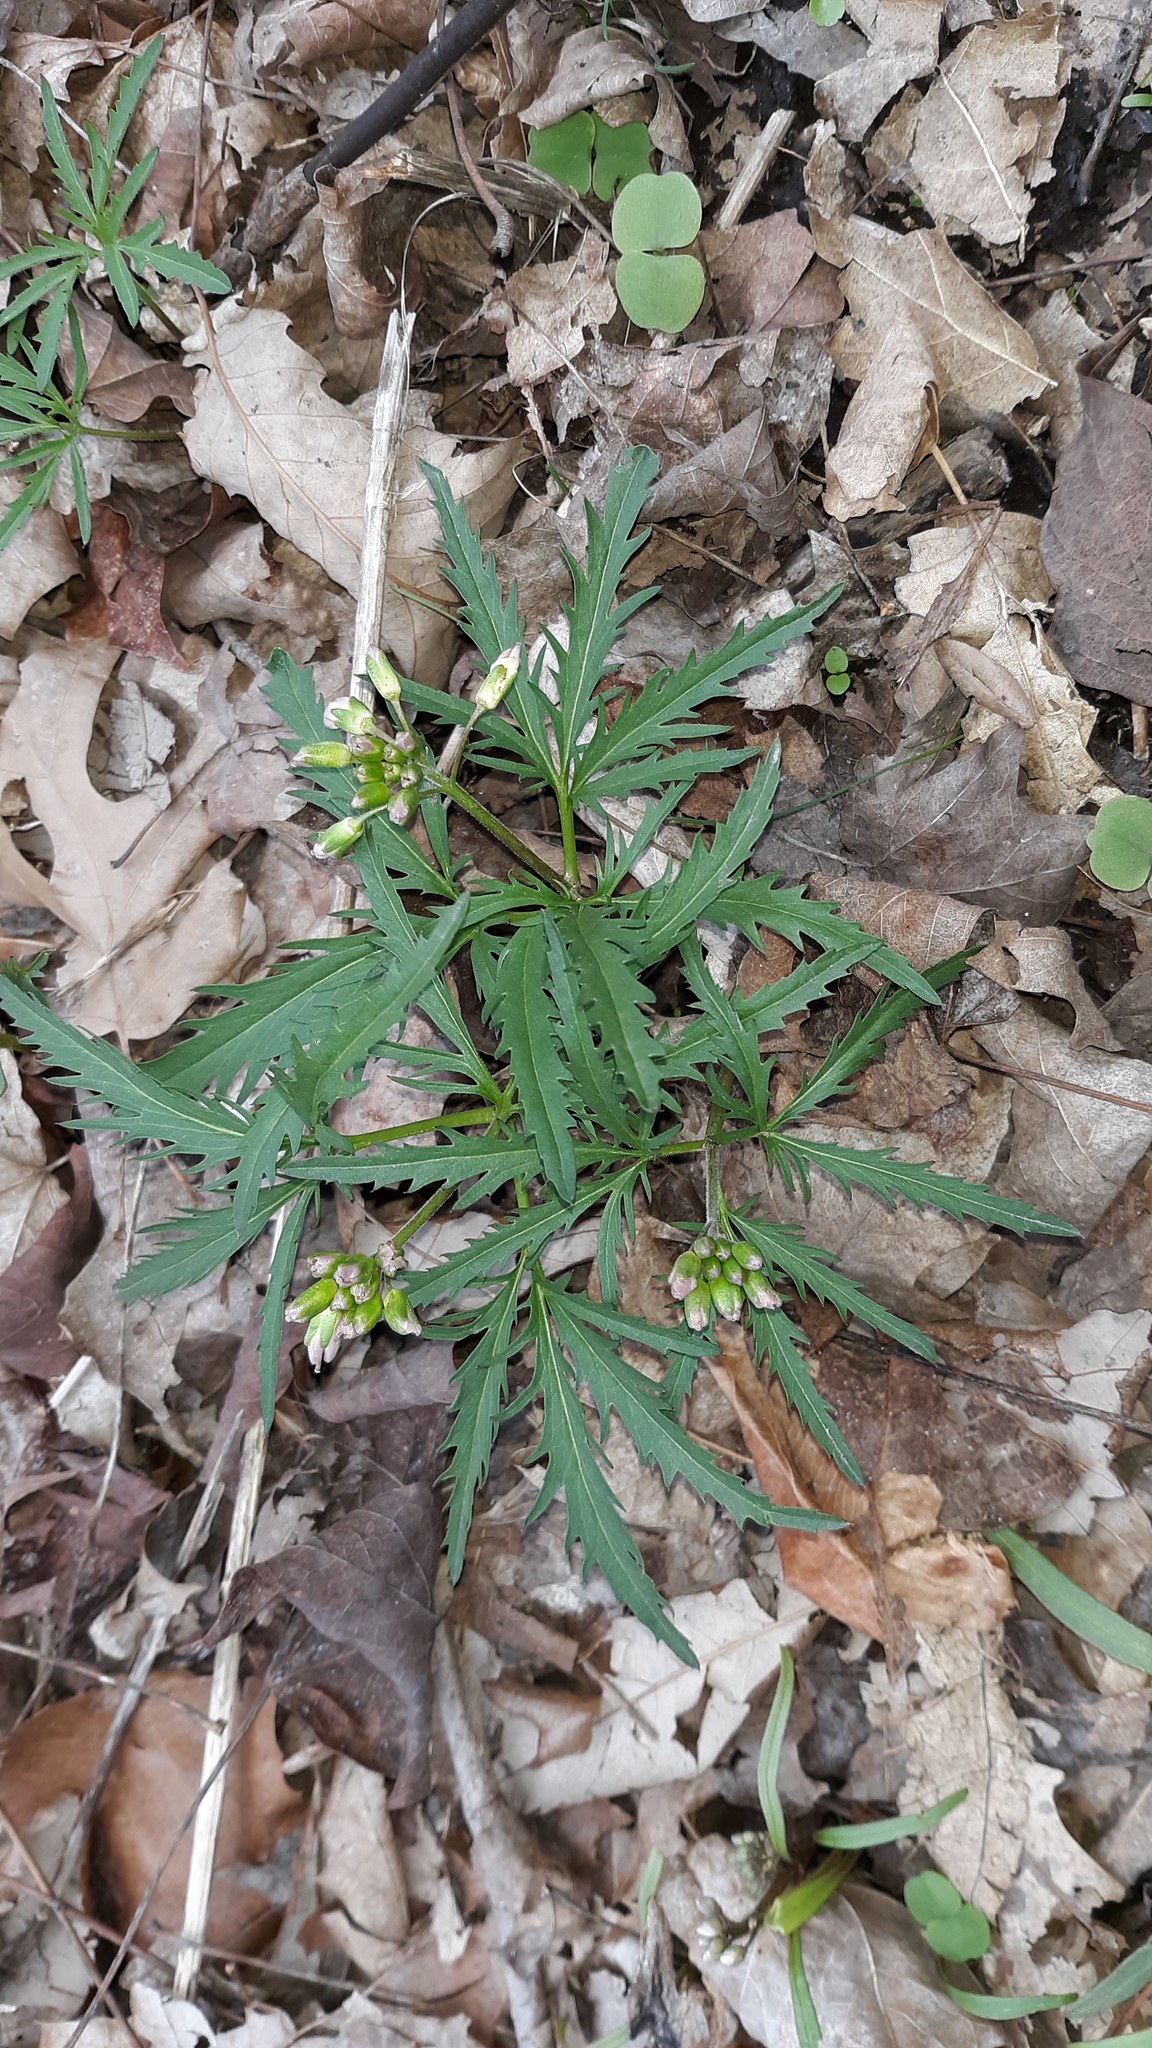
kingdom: Plantae
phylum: Tracheophyta
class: Magnoliopsida
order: Brassicales
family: Brassicaceae
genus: Cardamine
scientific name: Cardamine concatenata
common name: Cut-leaf toothcup
